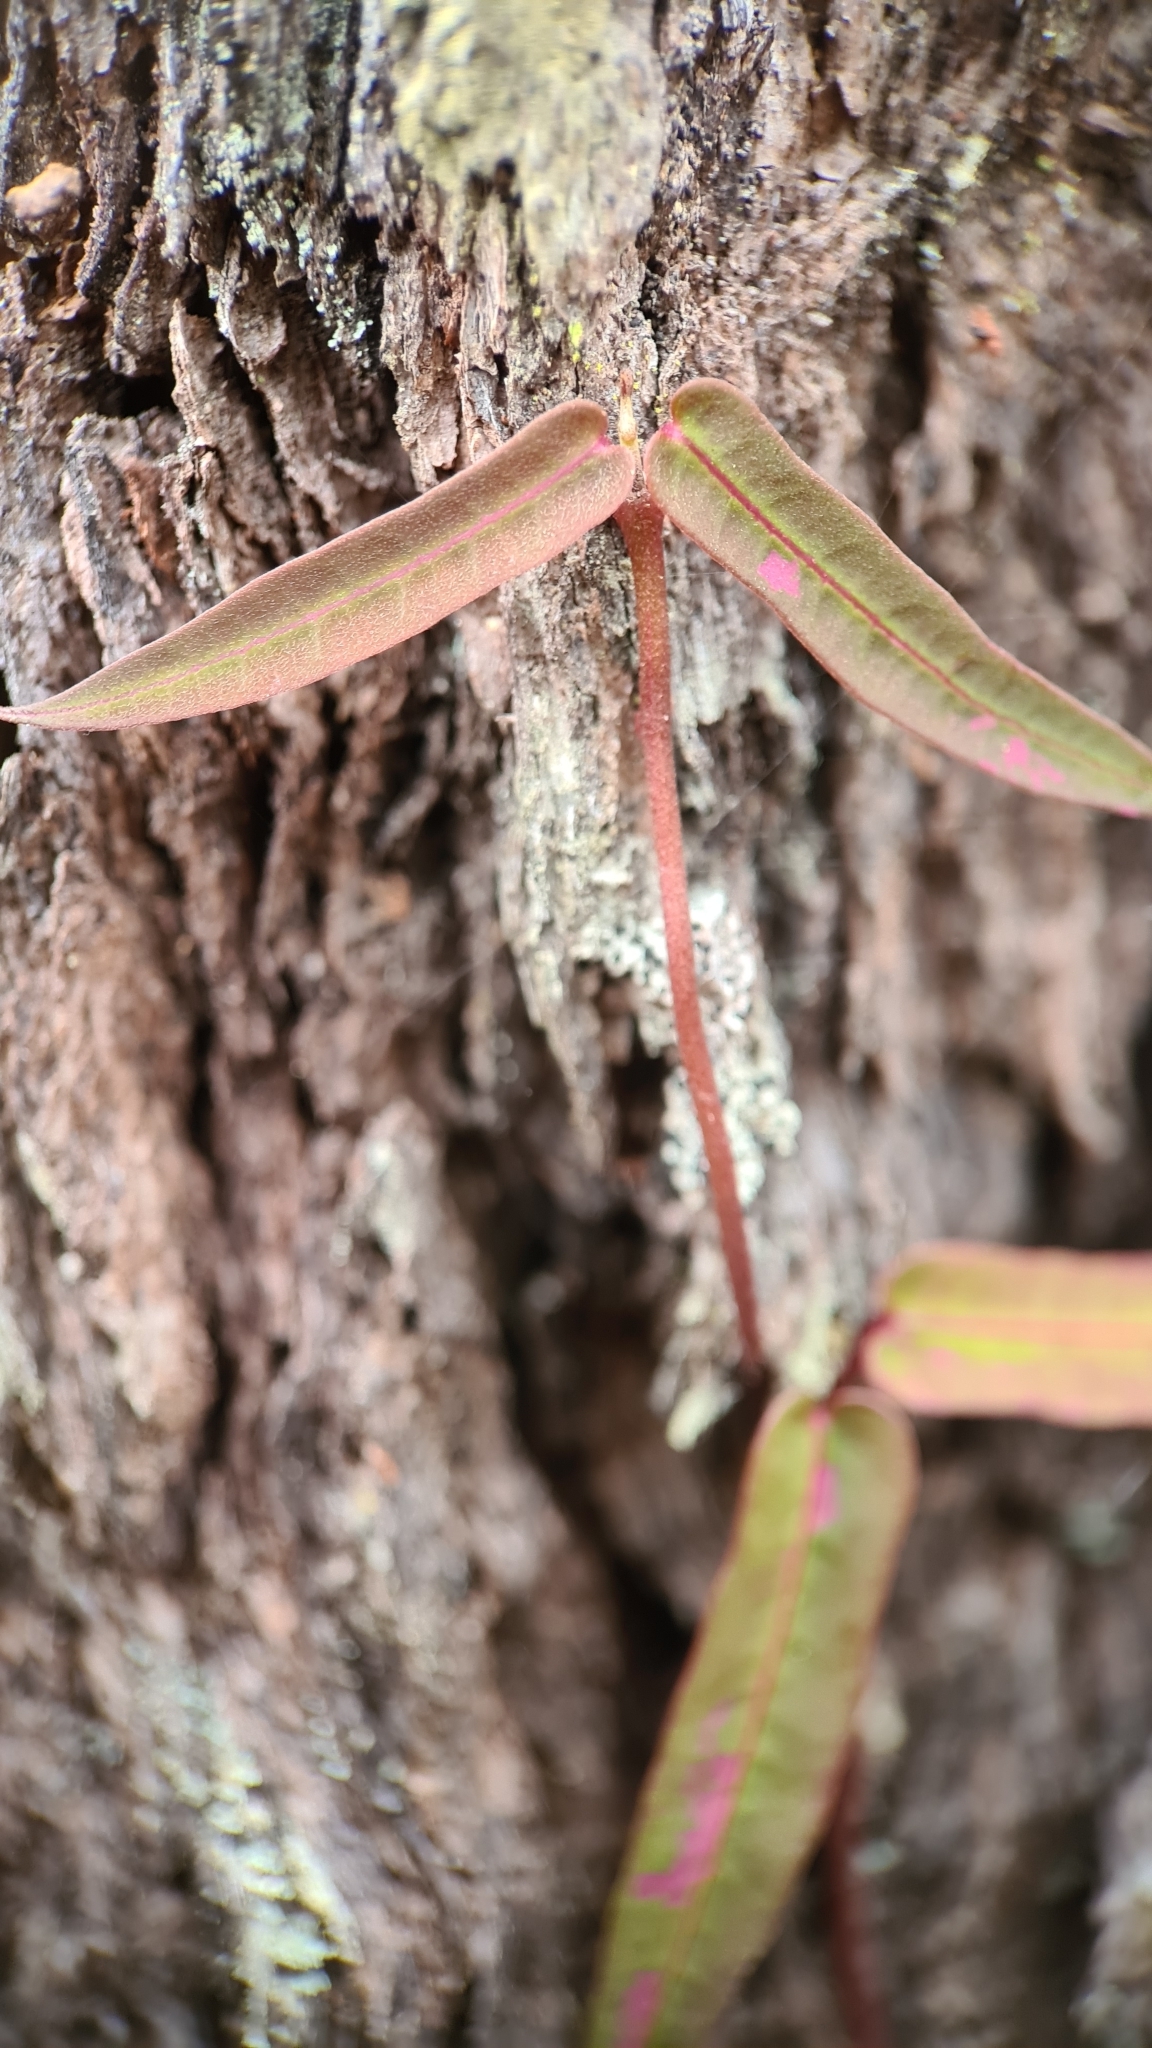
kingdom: Plantae
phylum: Tracheophyta
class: Magnoliopsida
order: Gentianales
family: Apocynaceae
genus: Parsonsia
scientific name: Parsonsia straminea
